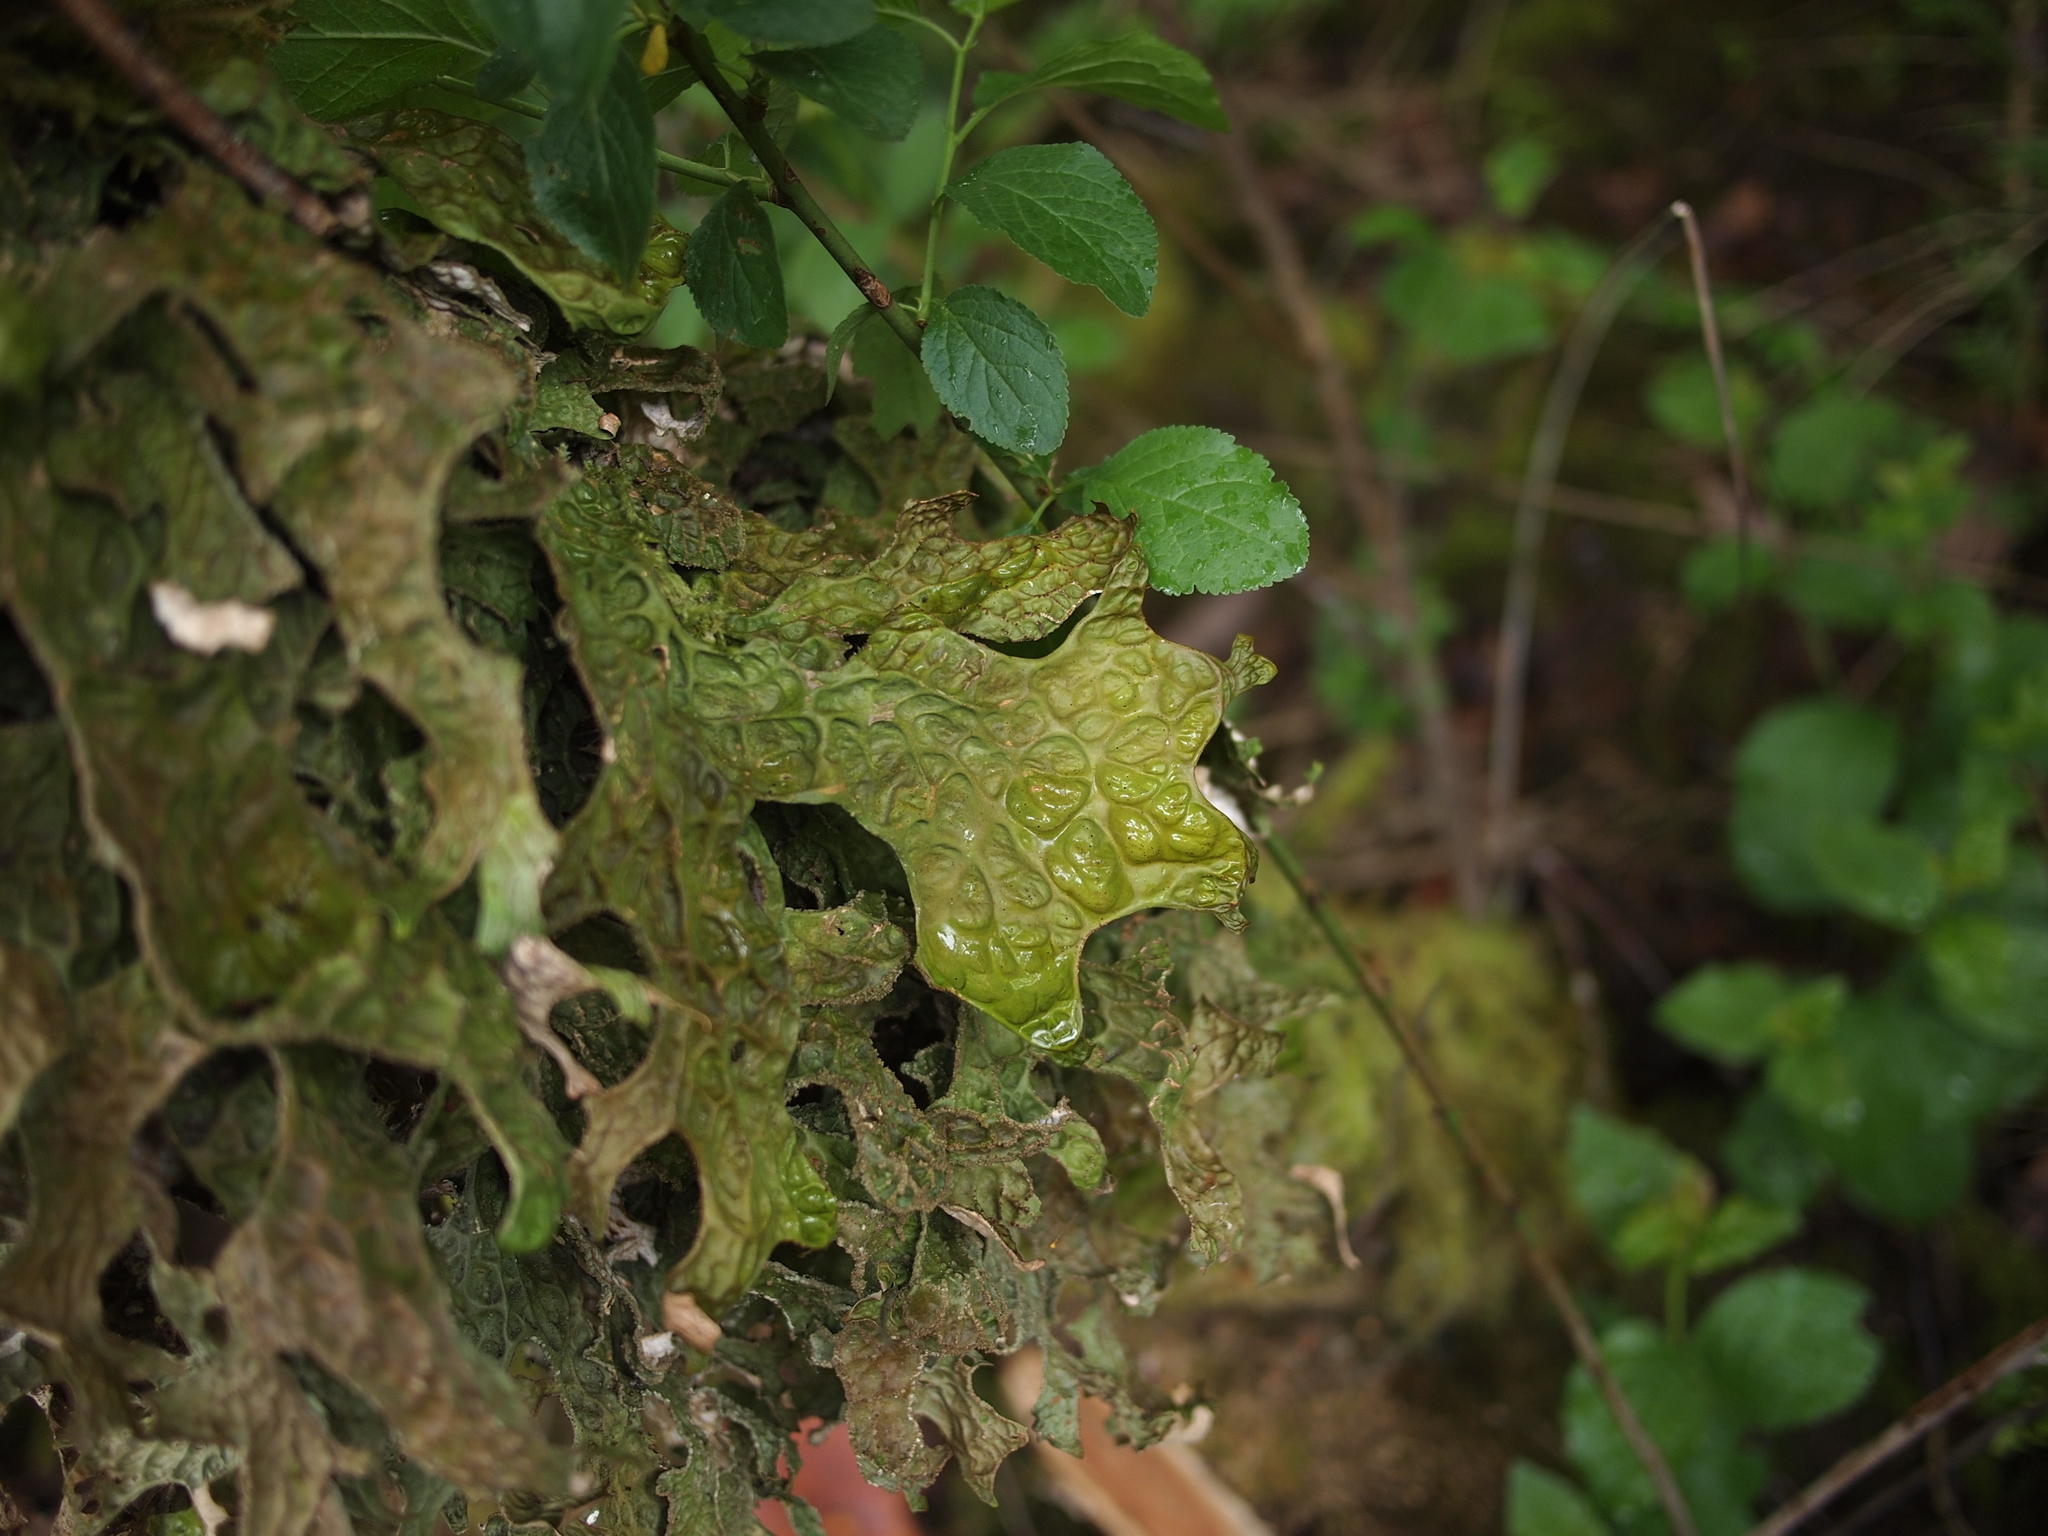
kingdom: Fungi
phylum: Ascomycota
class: Lecanoromycetes
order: Peltigerales
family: Lobariaceae
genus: Lobaria
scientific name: Lobaria pulmonaria
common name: Lungwort
